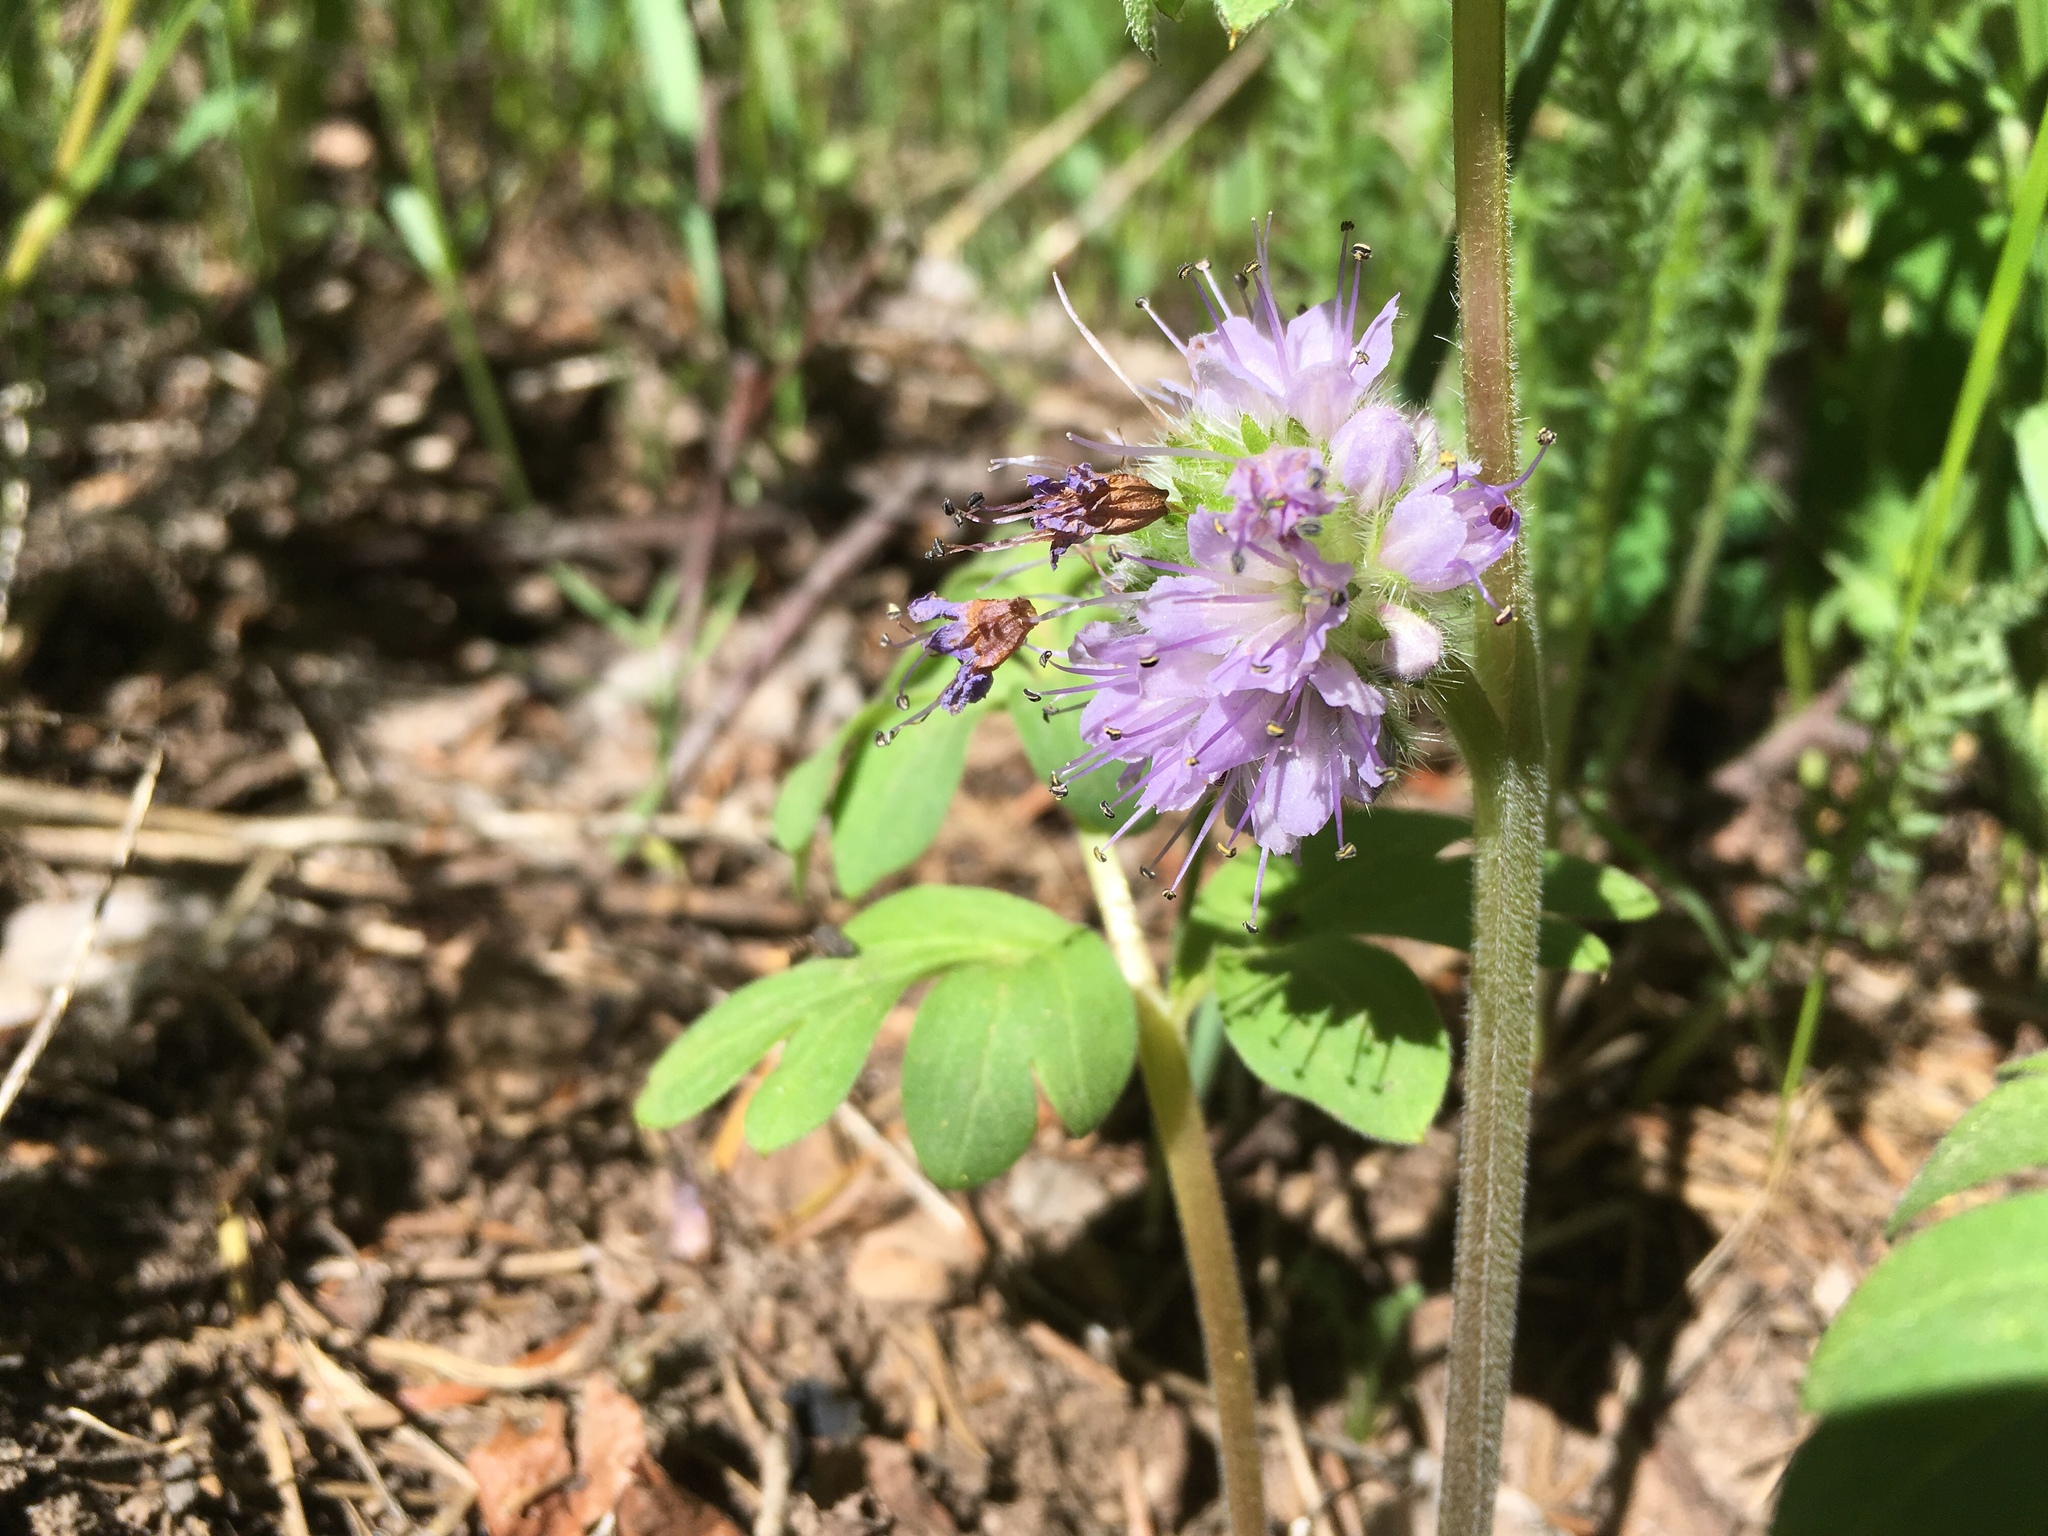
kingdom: Plantae
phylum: Tracheophyta
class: Magnoliopsida
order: Boraginales
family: Hydrophyllaceae
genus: Hydrophyllum
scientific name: Hydrophyllum capitatum
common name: Woollen-breeches
